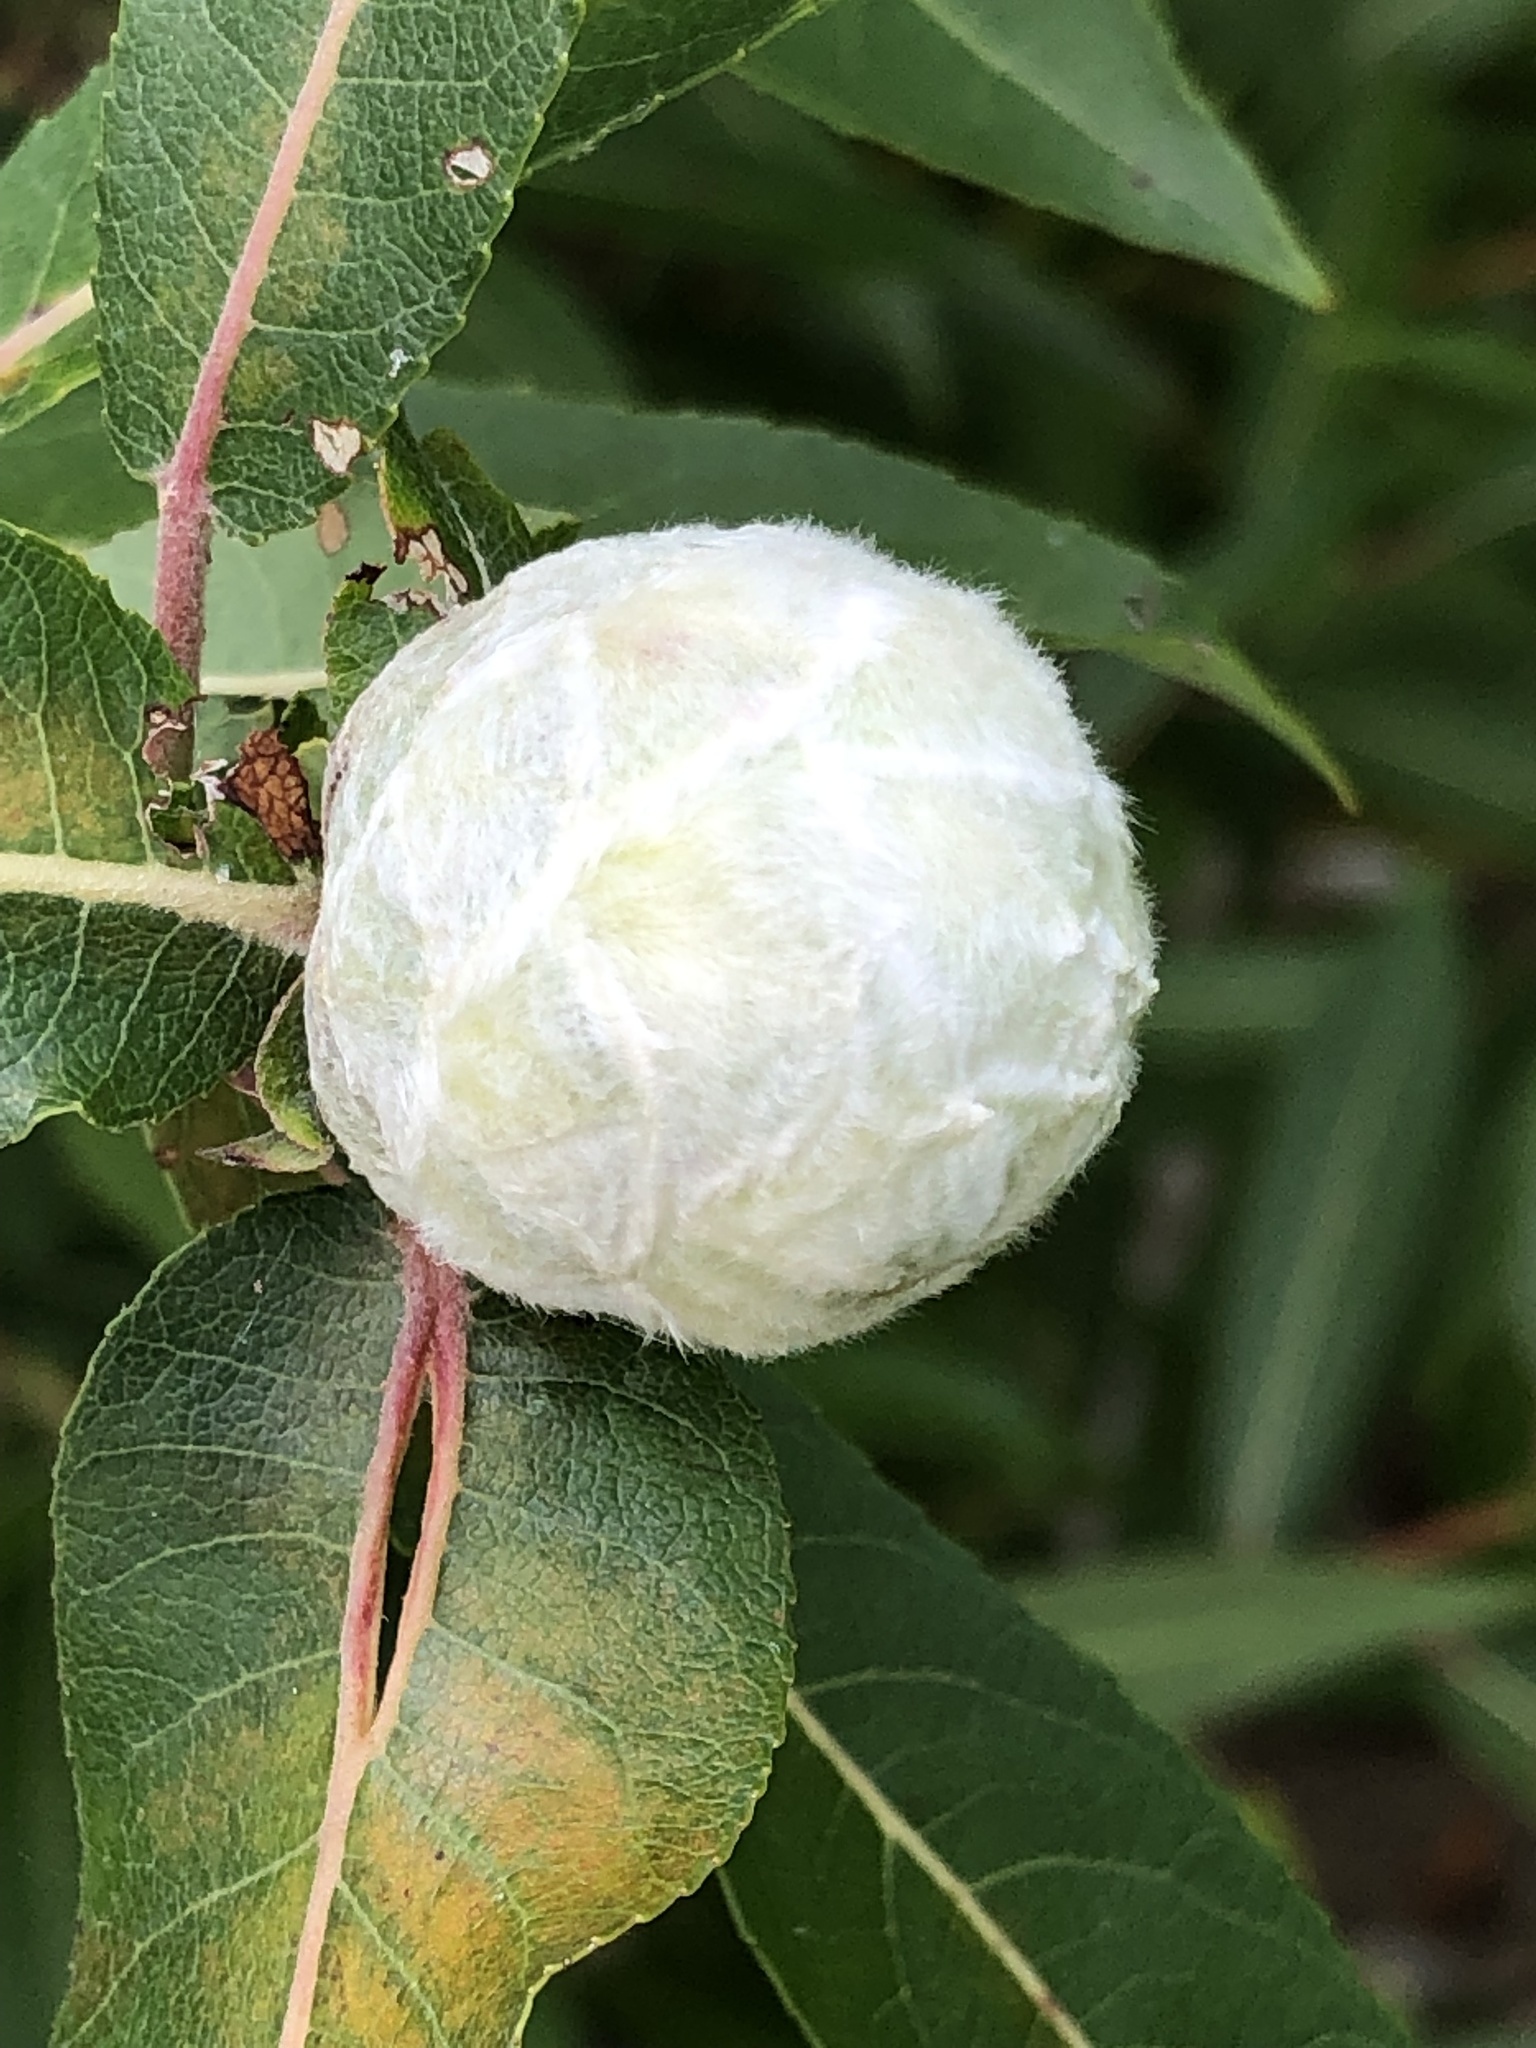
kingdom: Animalia
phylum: Arthropoda
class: Insecta
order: Diptera
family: Cecidomyiidae
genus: Rabdophaga
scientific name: Rabdophaga strobiloides
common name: Willow pinecone gall midge
